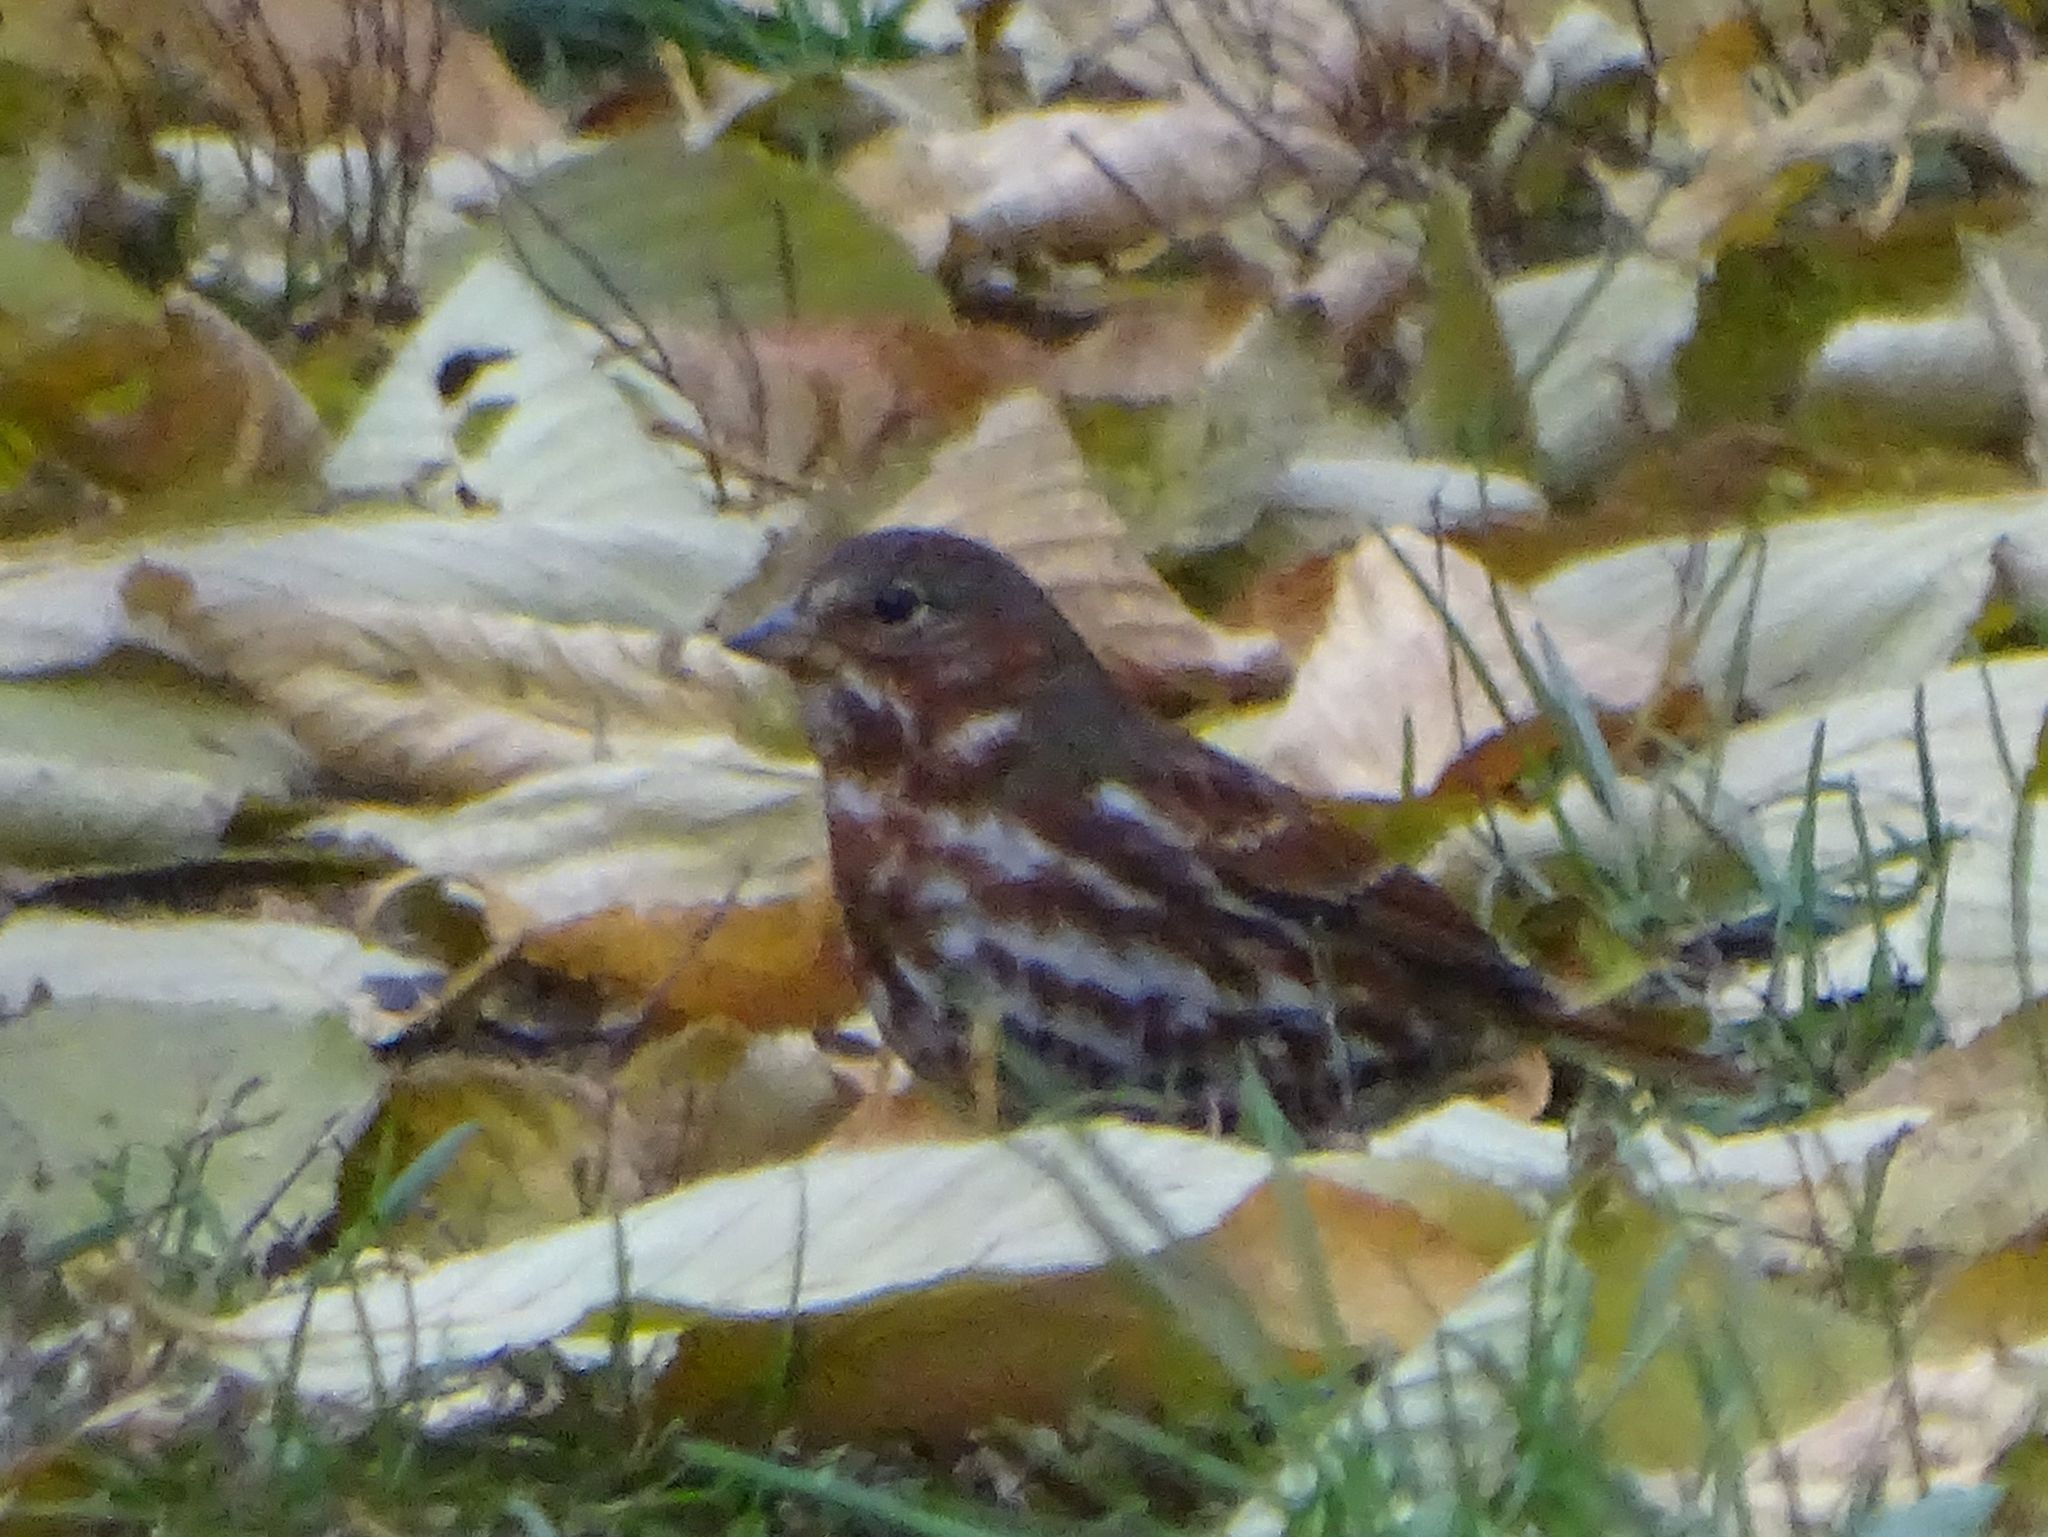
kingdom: Animalia
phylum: Chordata
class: Aves
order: Passeriformes
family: Passerellidae
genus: Passerella
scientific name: Passerella iliaca
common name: Fox sparrow
